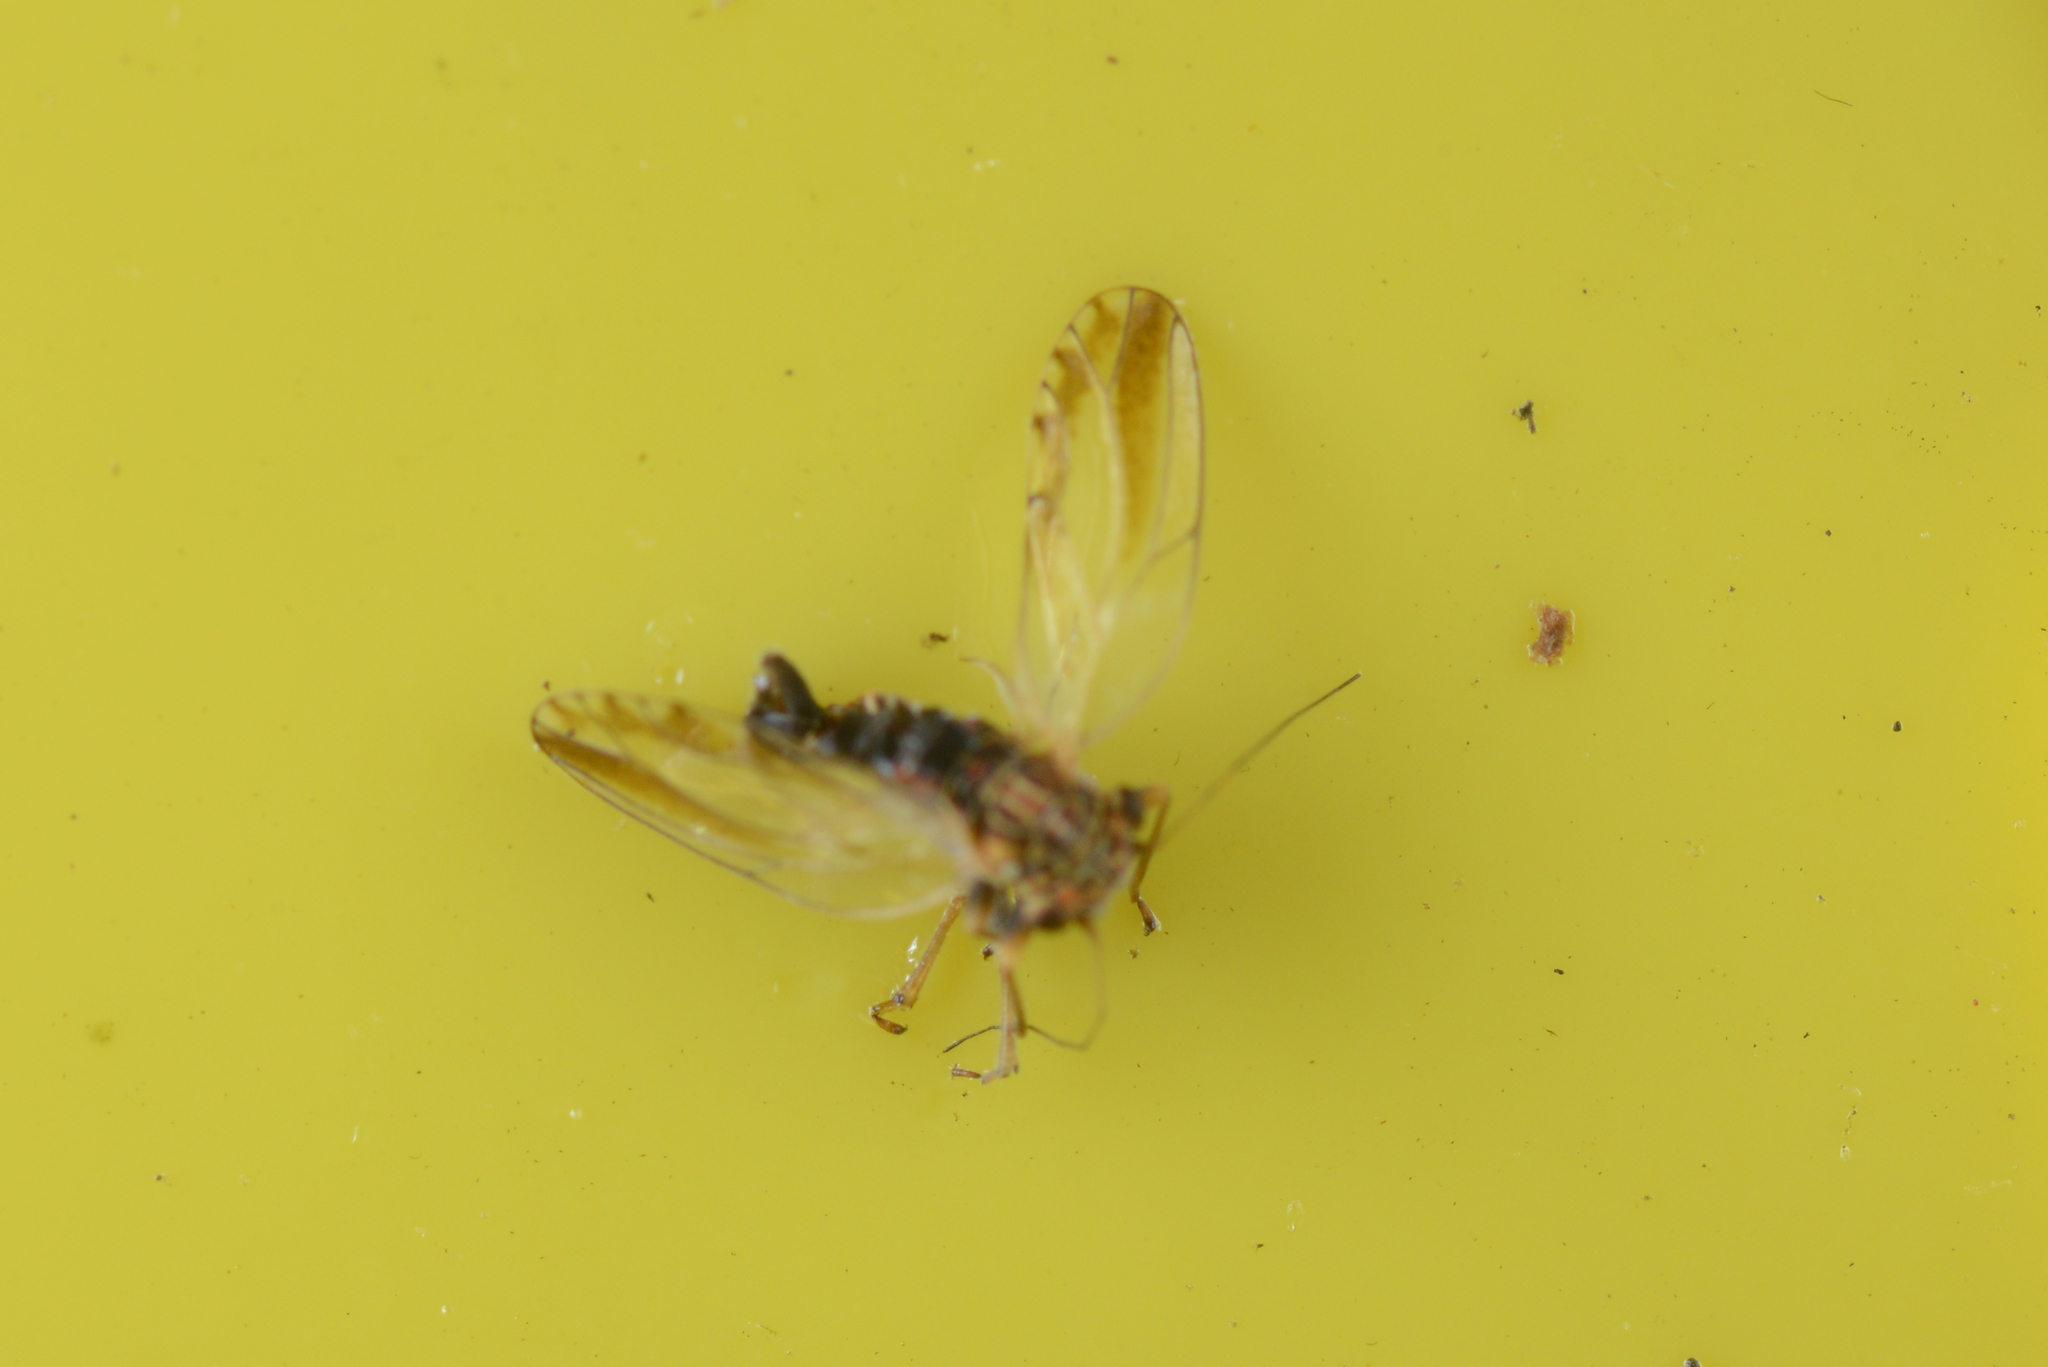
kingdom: Animalia
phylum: Arthropoda
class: Insecta
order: Hemiptera
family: Psyllidae
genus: Arytaina
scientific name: Arytaina genistae
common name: Psyllid
